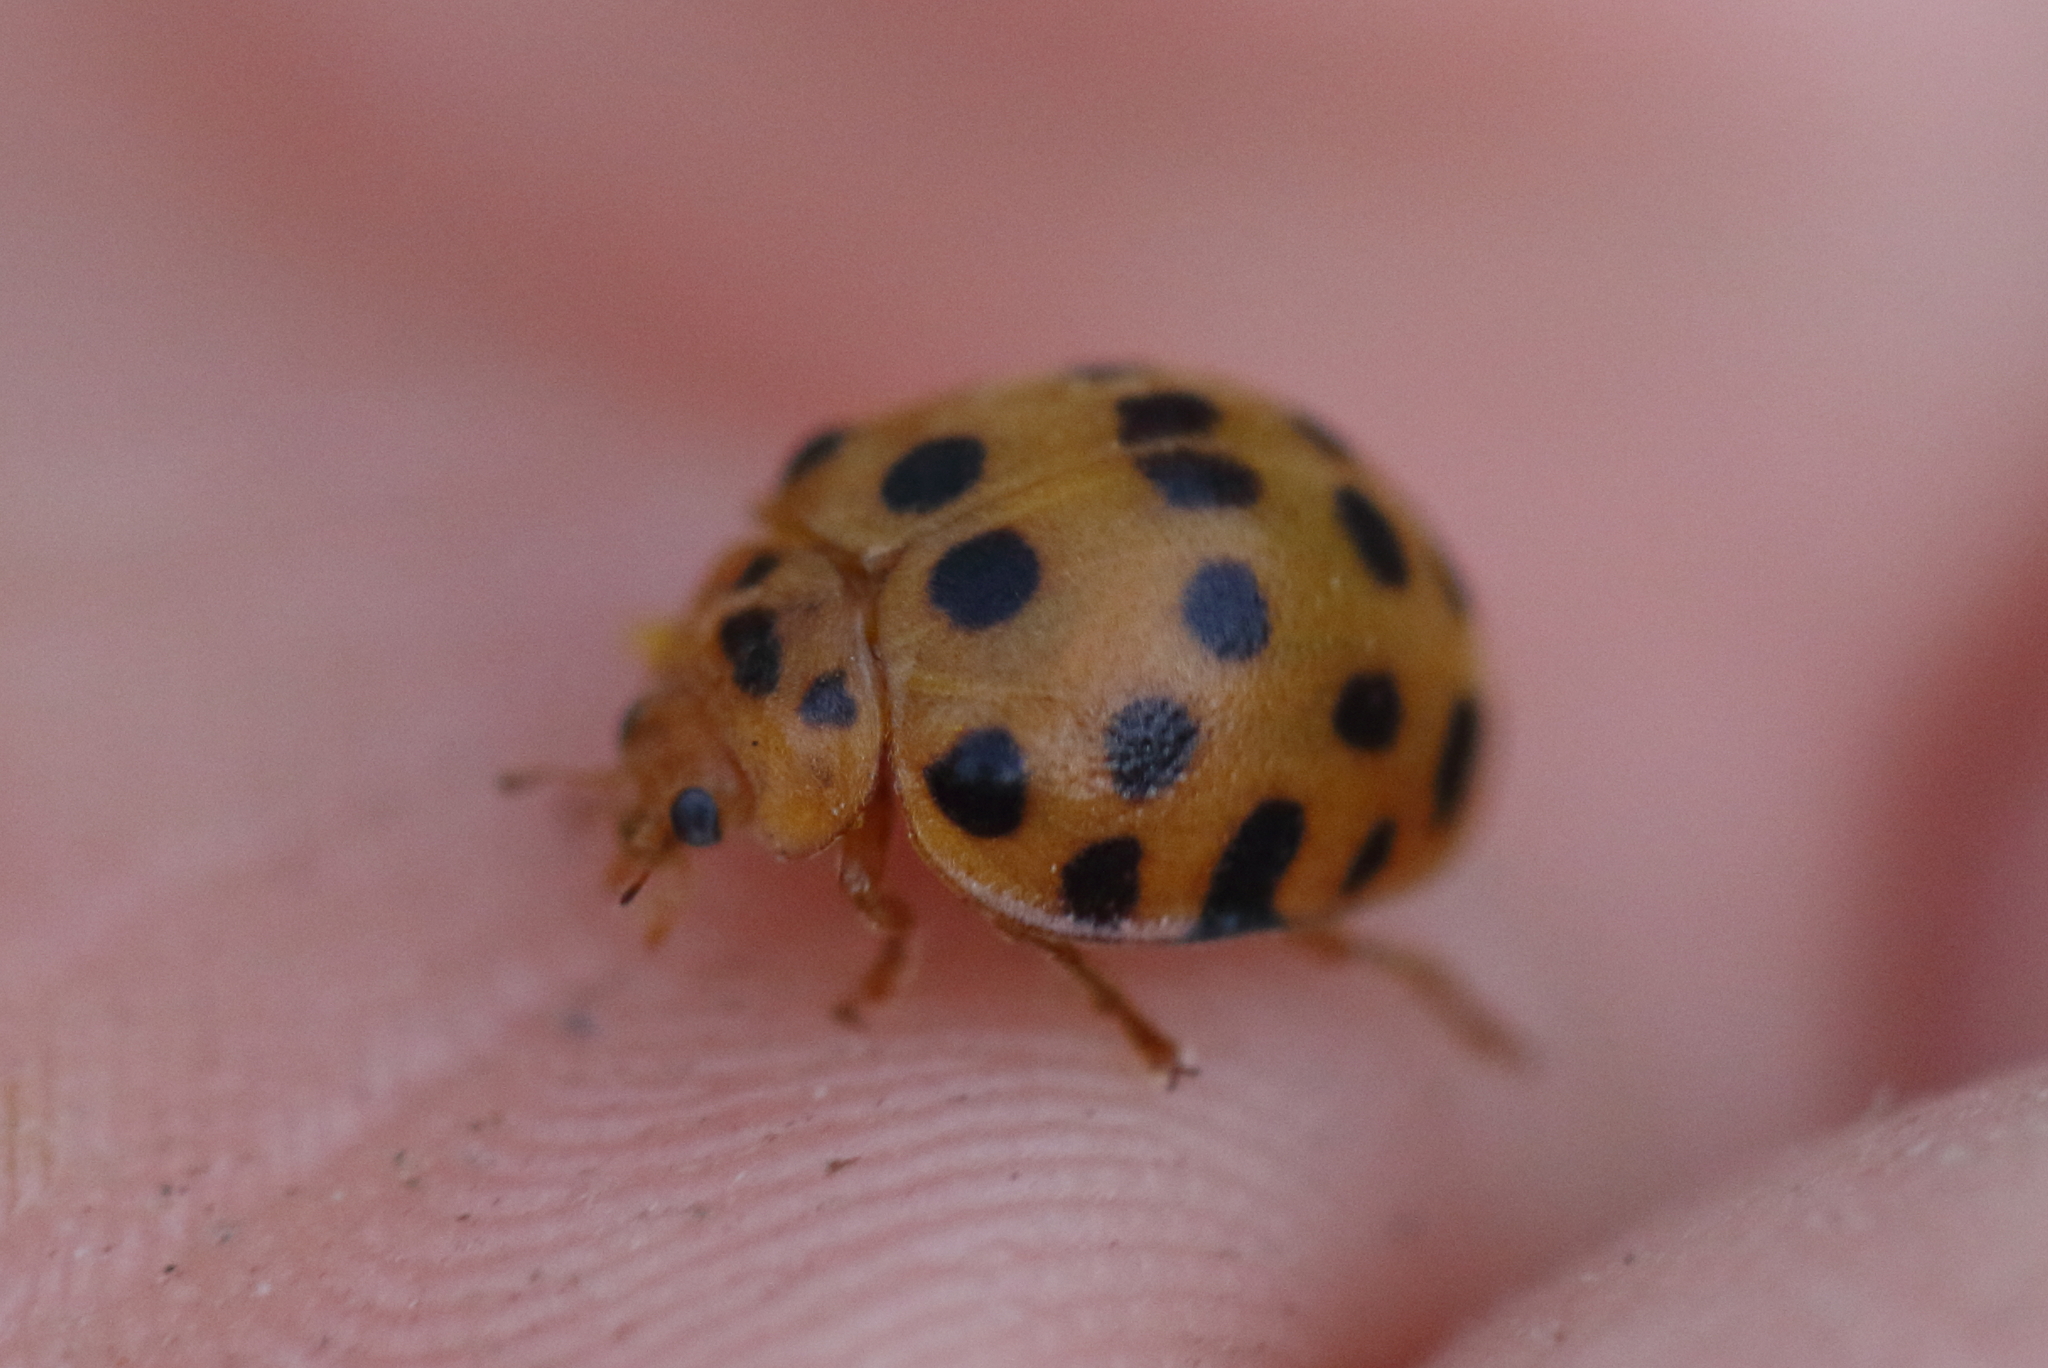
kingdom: Animalia
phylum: Arthropoda
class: Insecta
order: Coleoptera
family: Coccinellidae
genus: Henosepilachna
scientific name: Henosepilachna vigintioctopunctata
